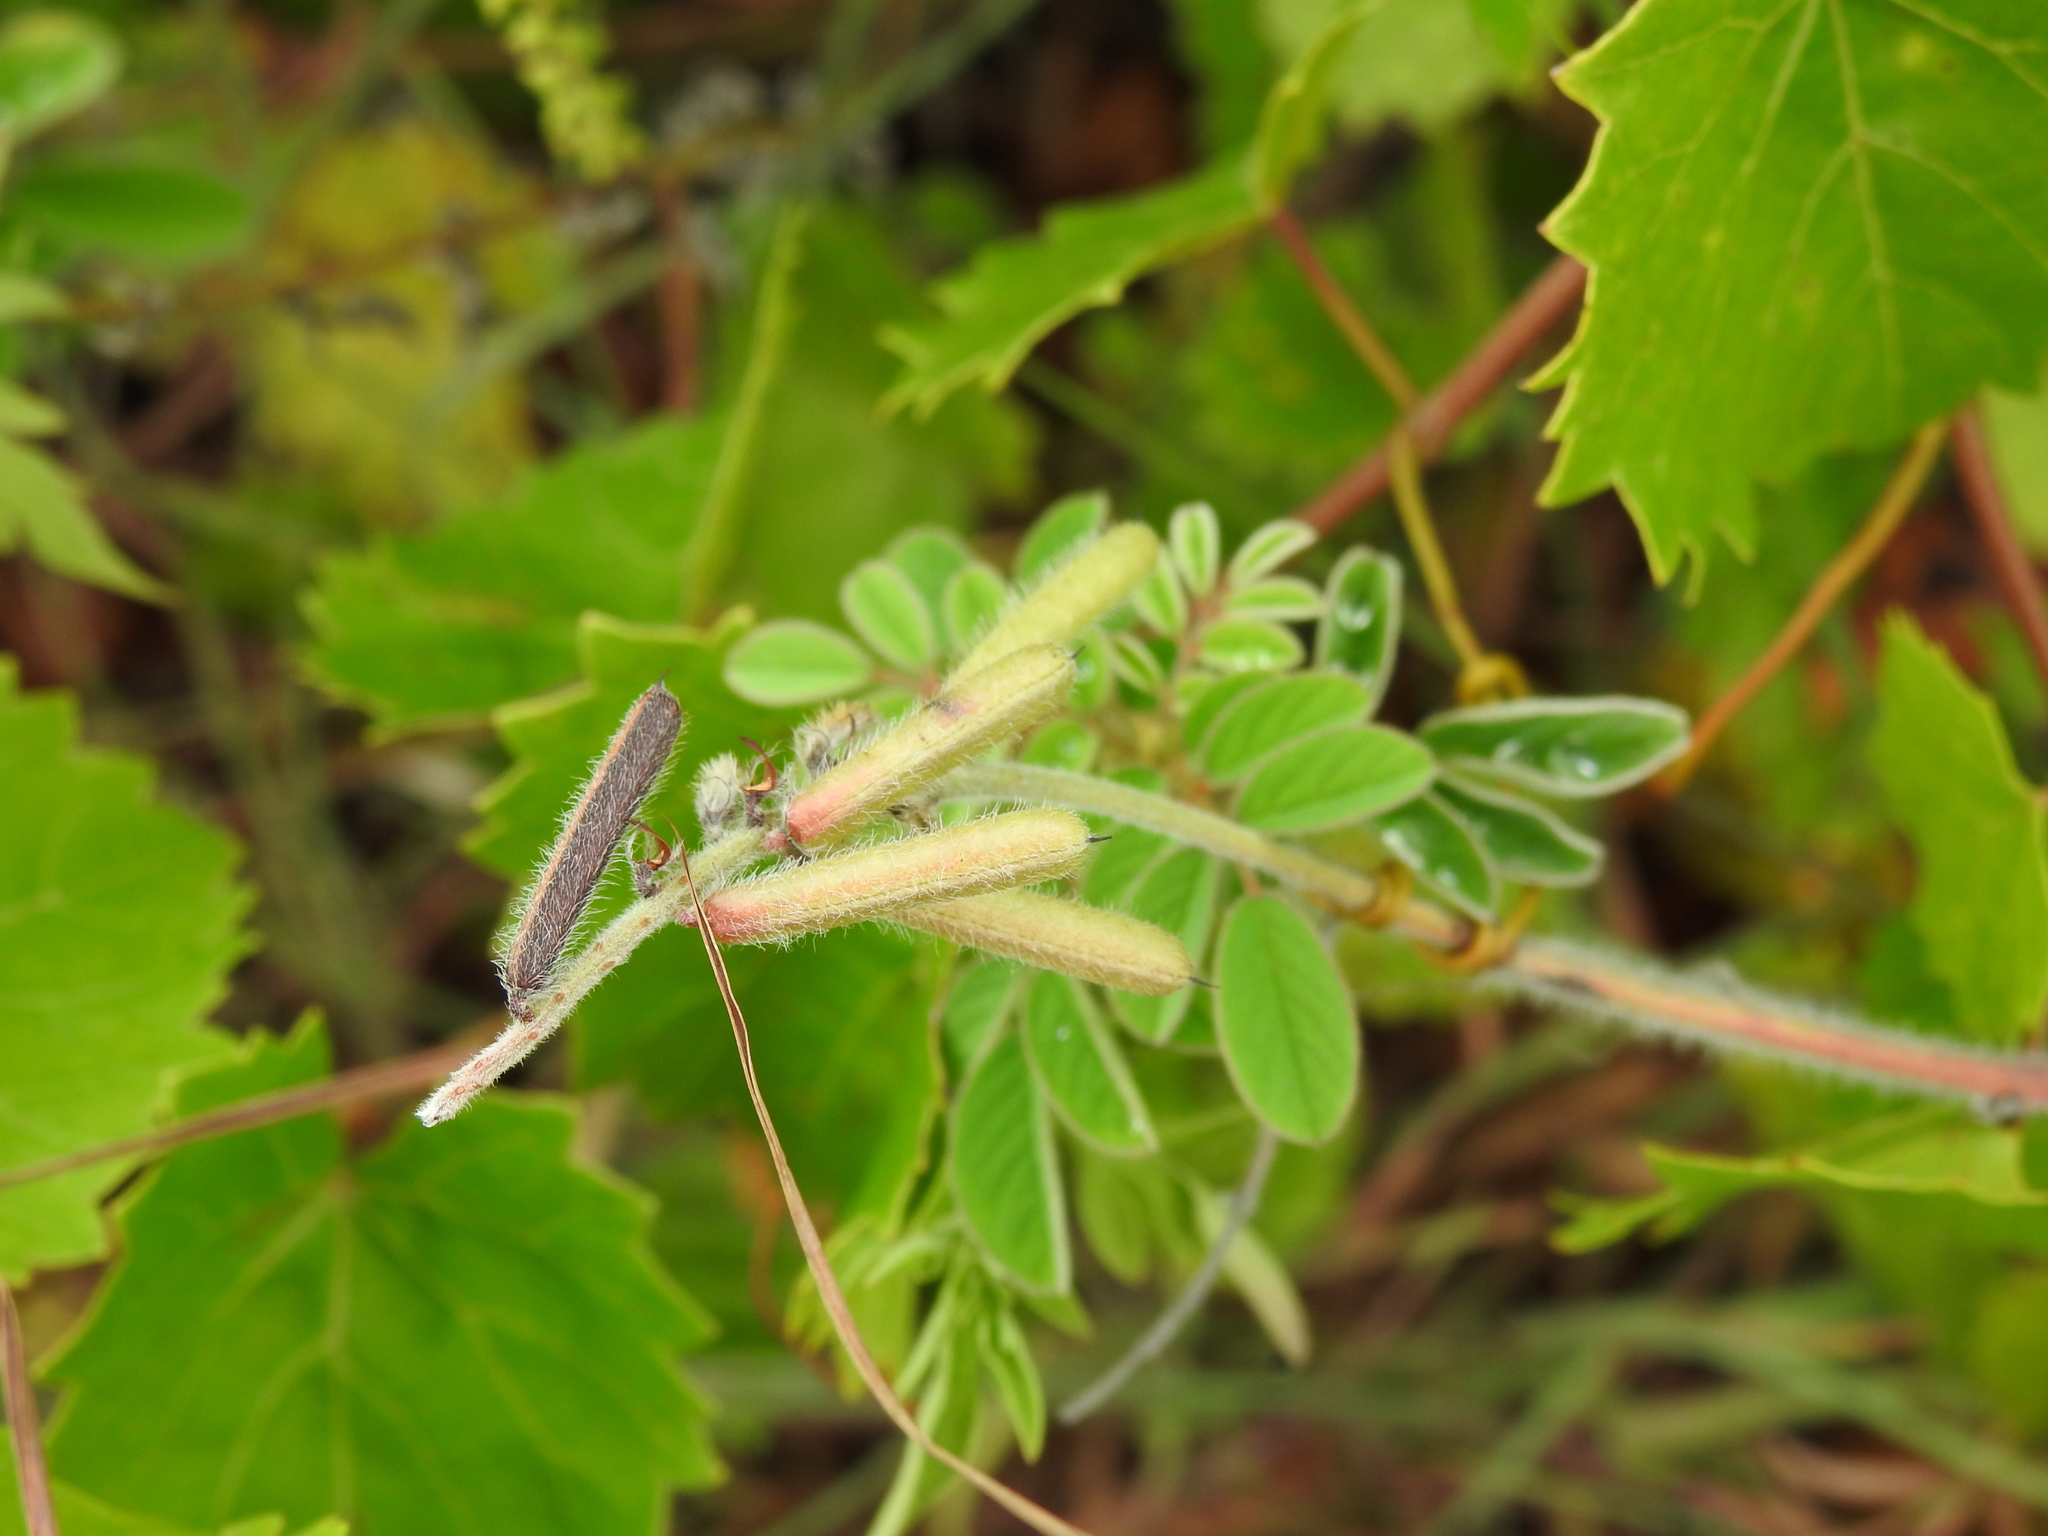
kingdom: Plantae
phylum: Tracheophyta
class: Magnoliopsida
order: Fabales
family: Fabaceae
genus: Indigofera
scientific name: Indigofera hirsuta
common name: Hairy indigo
